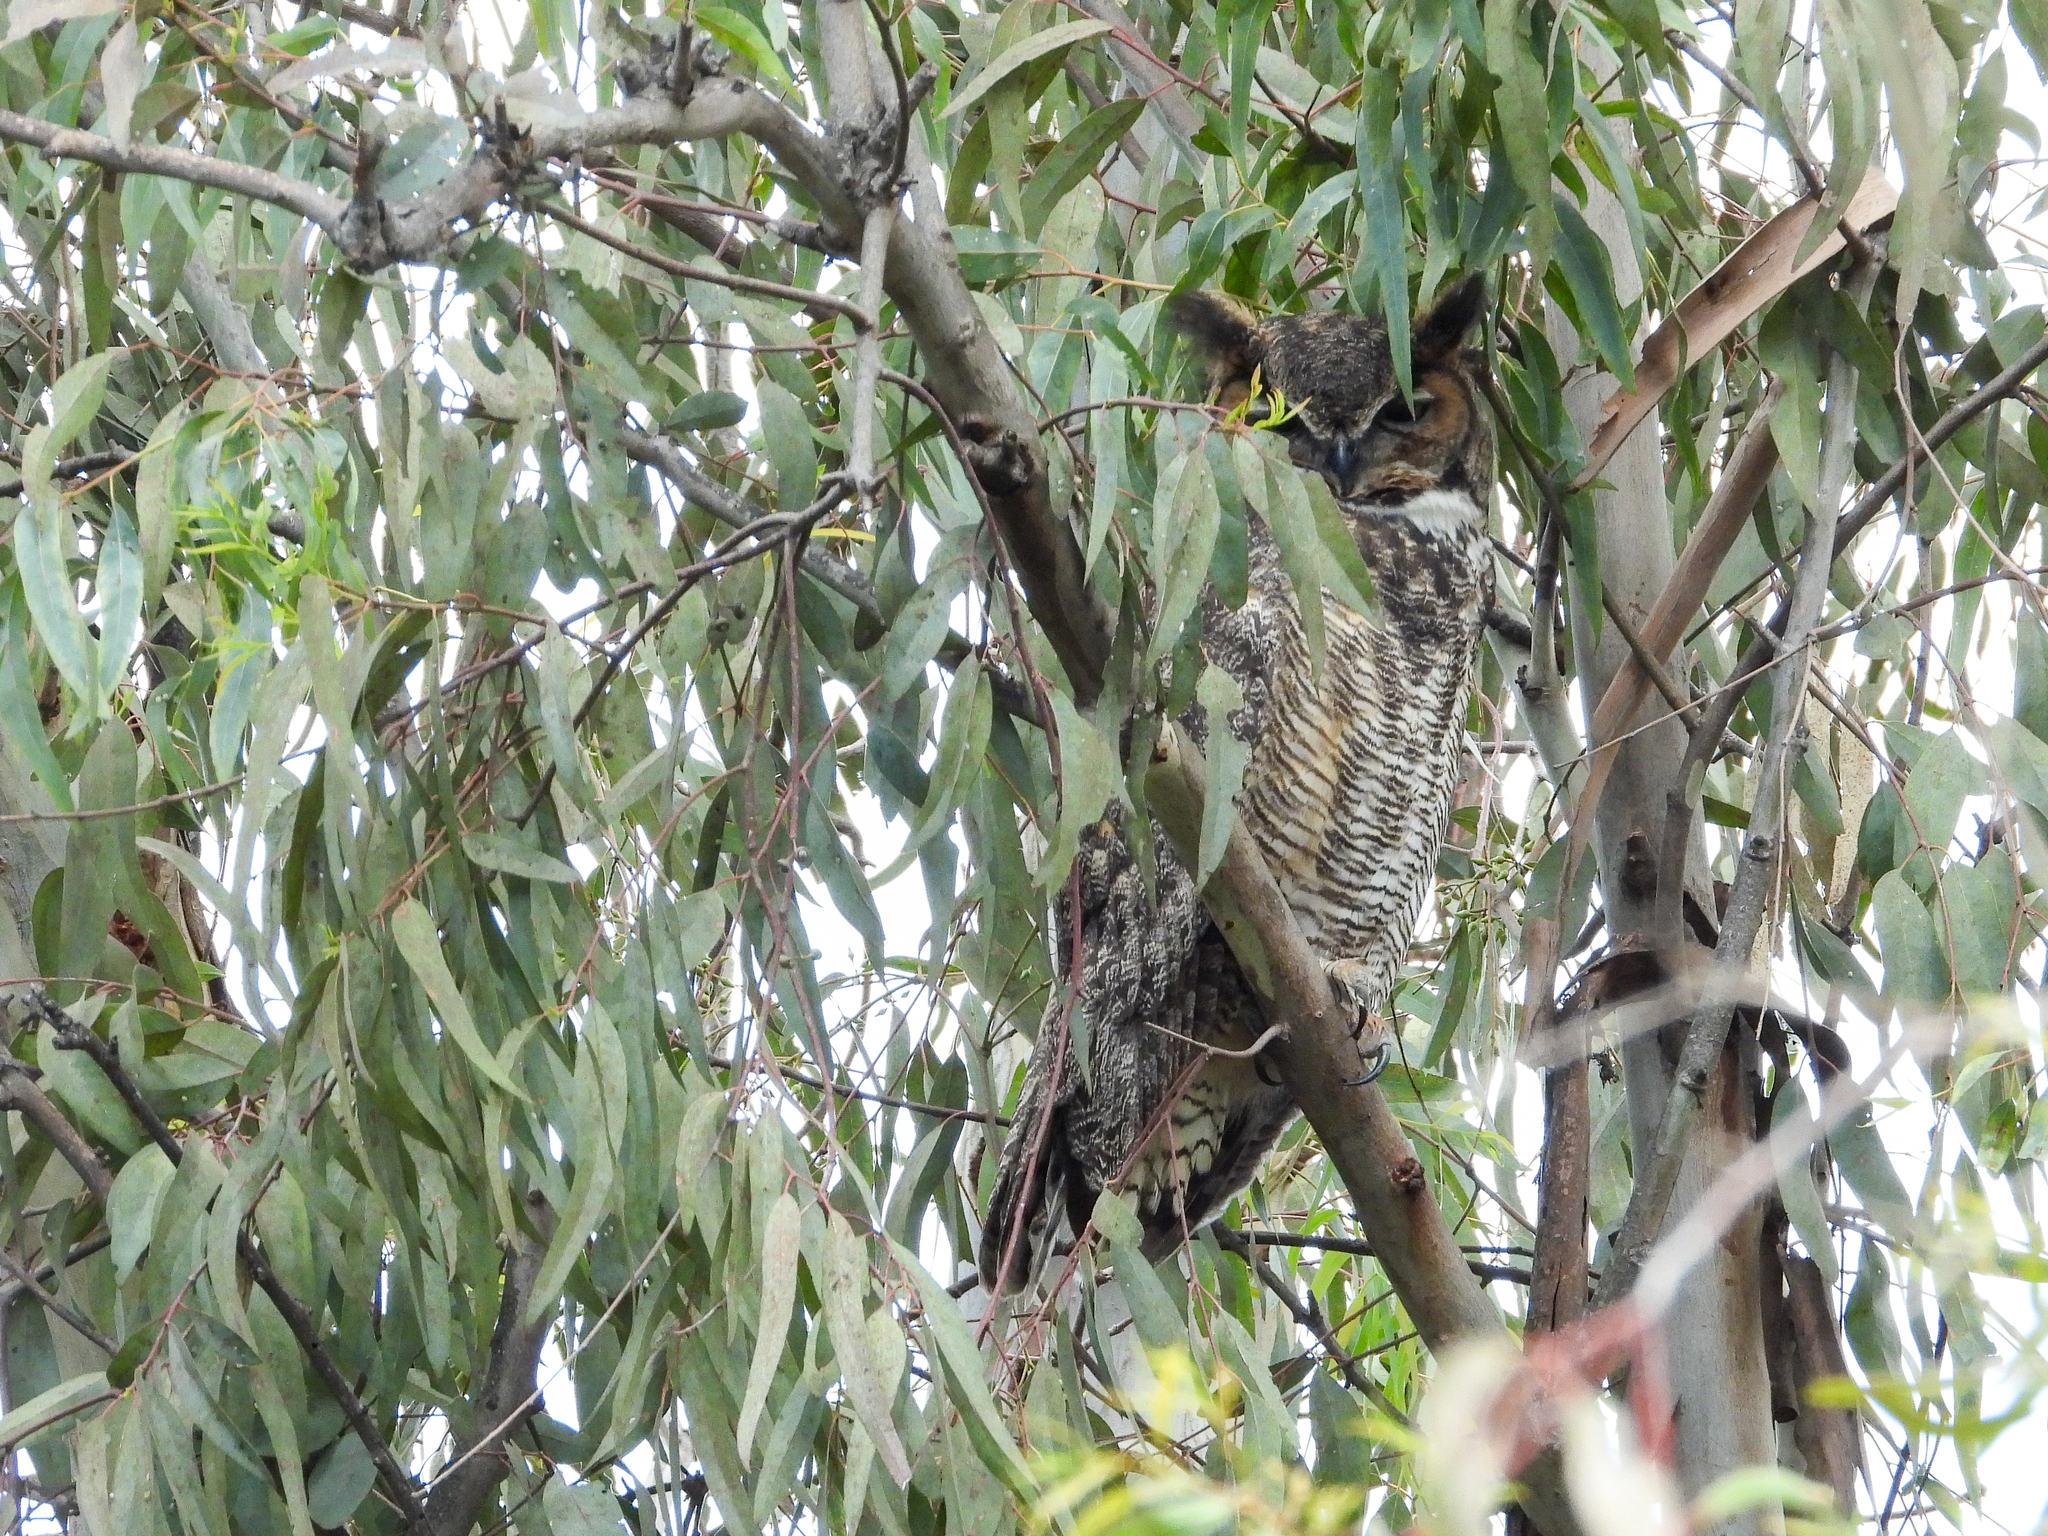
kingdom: Animalia
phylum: Chordata
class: Aves
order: Strigiformes
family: Strigidae
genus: Bubo
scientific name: Bubo virginianus
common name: Great horned owl
